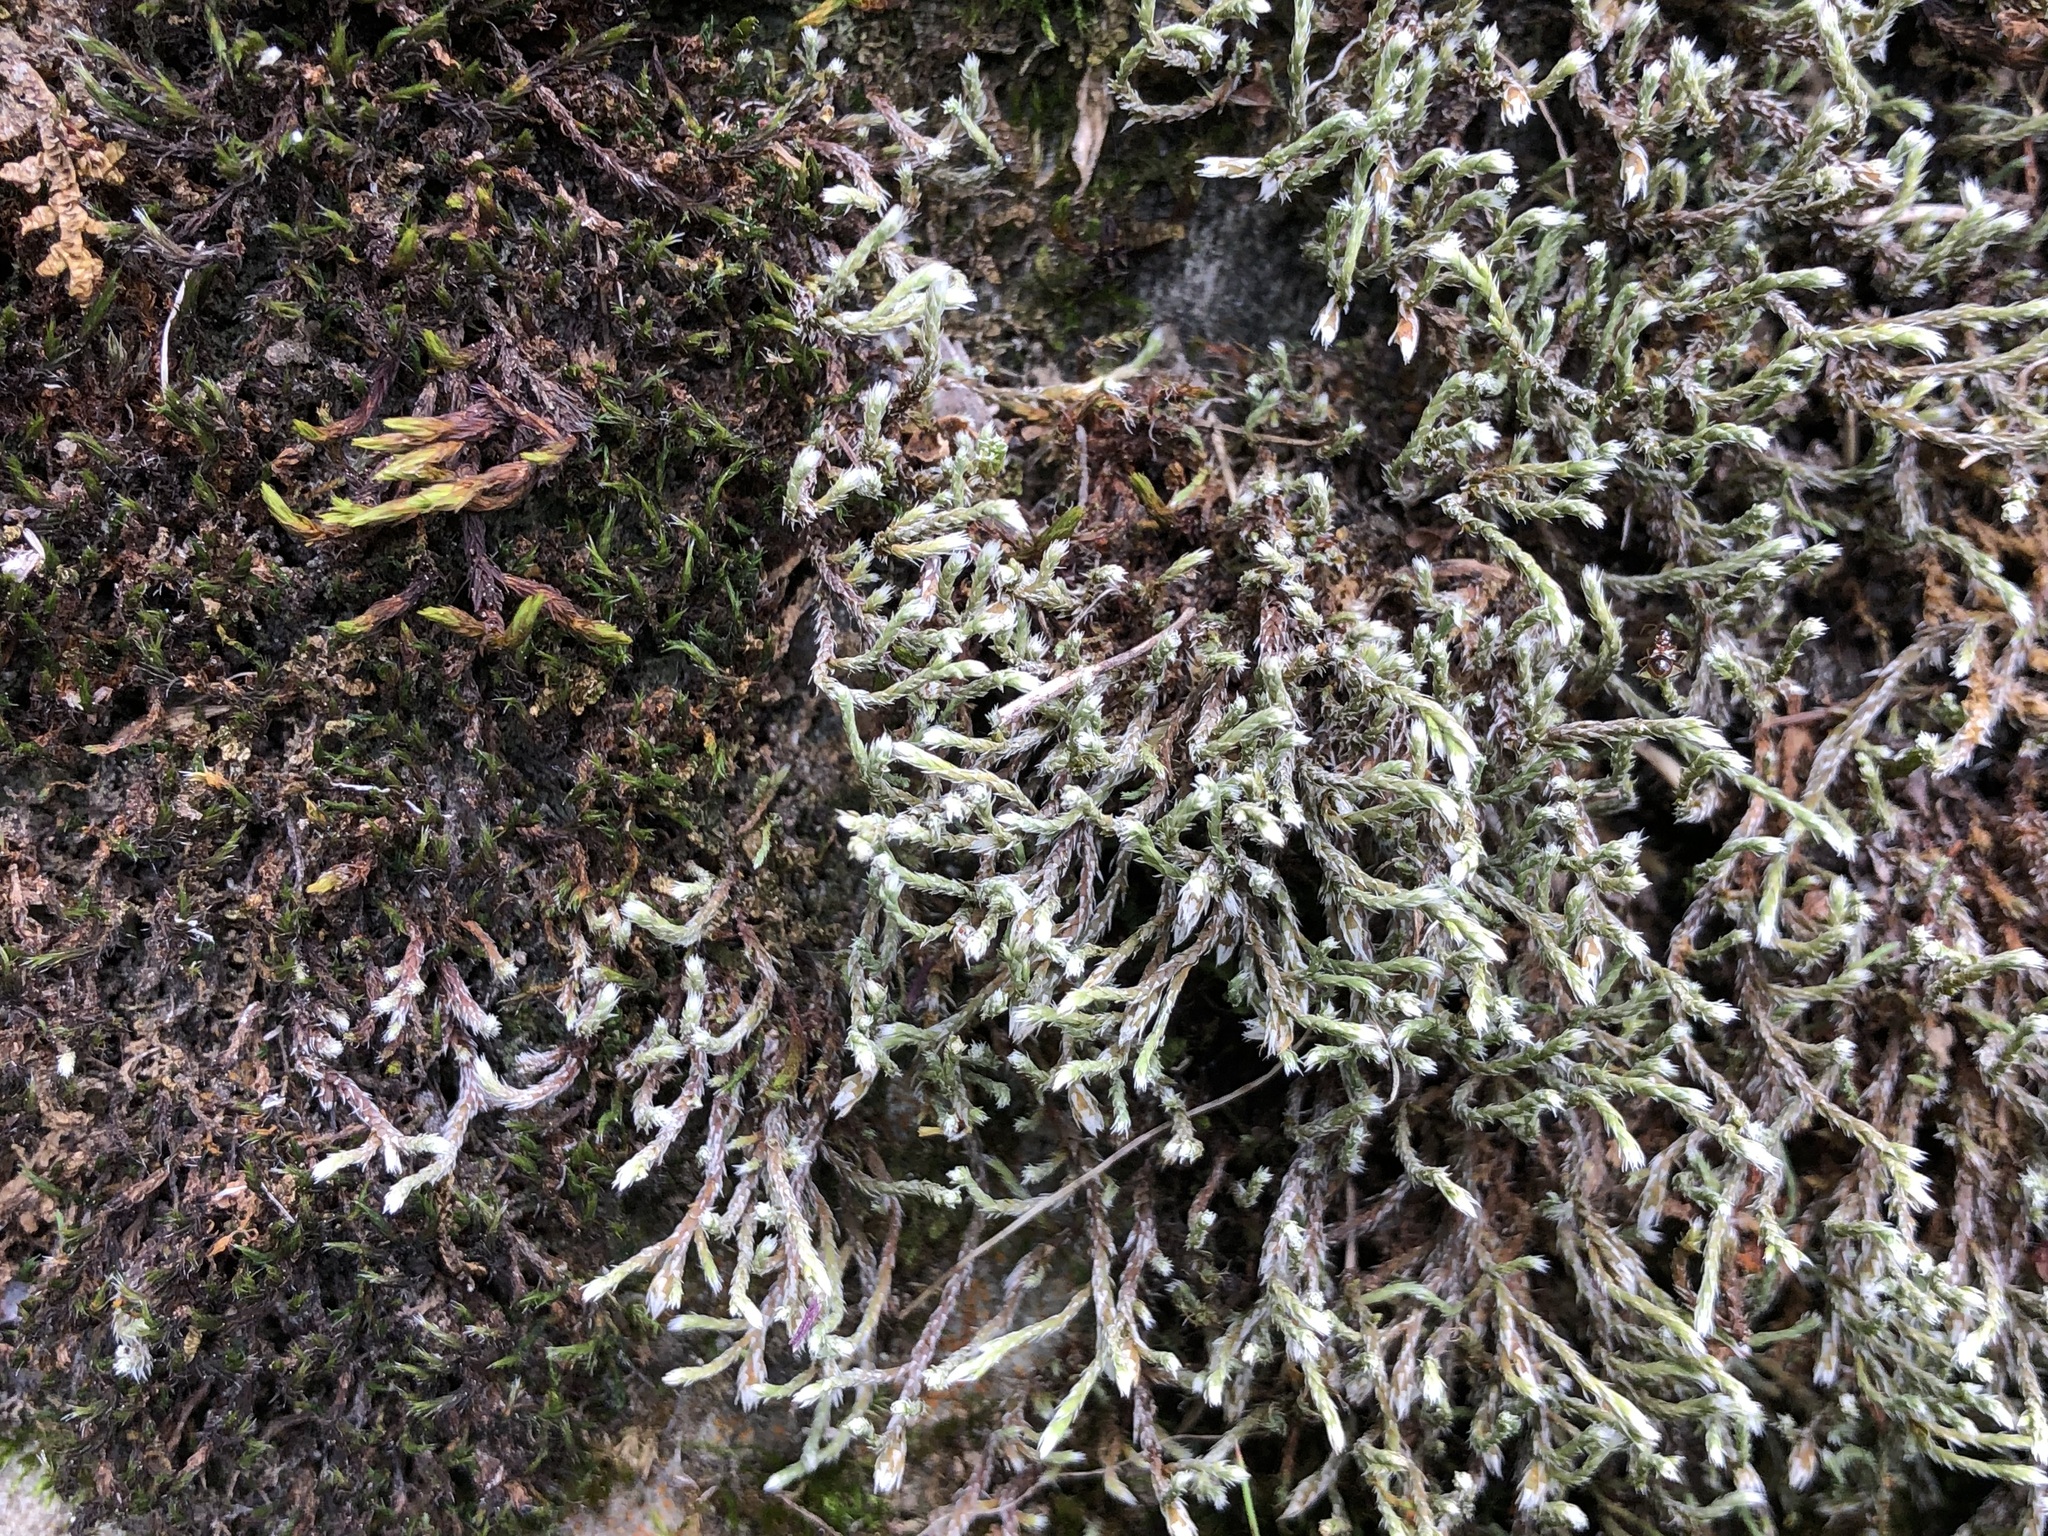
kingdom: Plantae
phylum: Bryophyta
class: Bryopsida
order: Hedwigiales
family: Hedwigiaceae
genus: Hedwigia
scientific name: Hedwigia emodica
